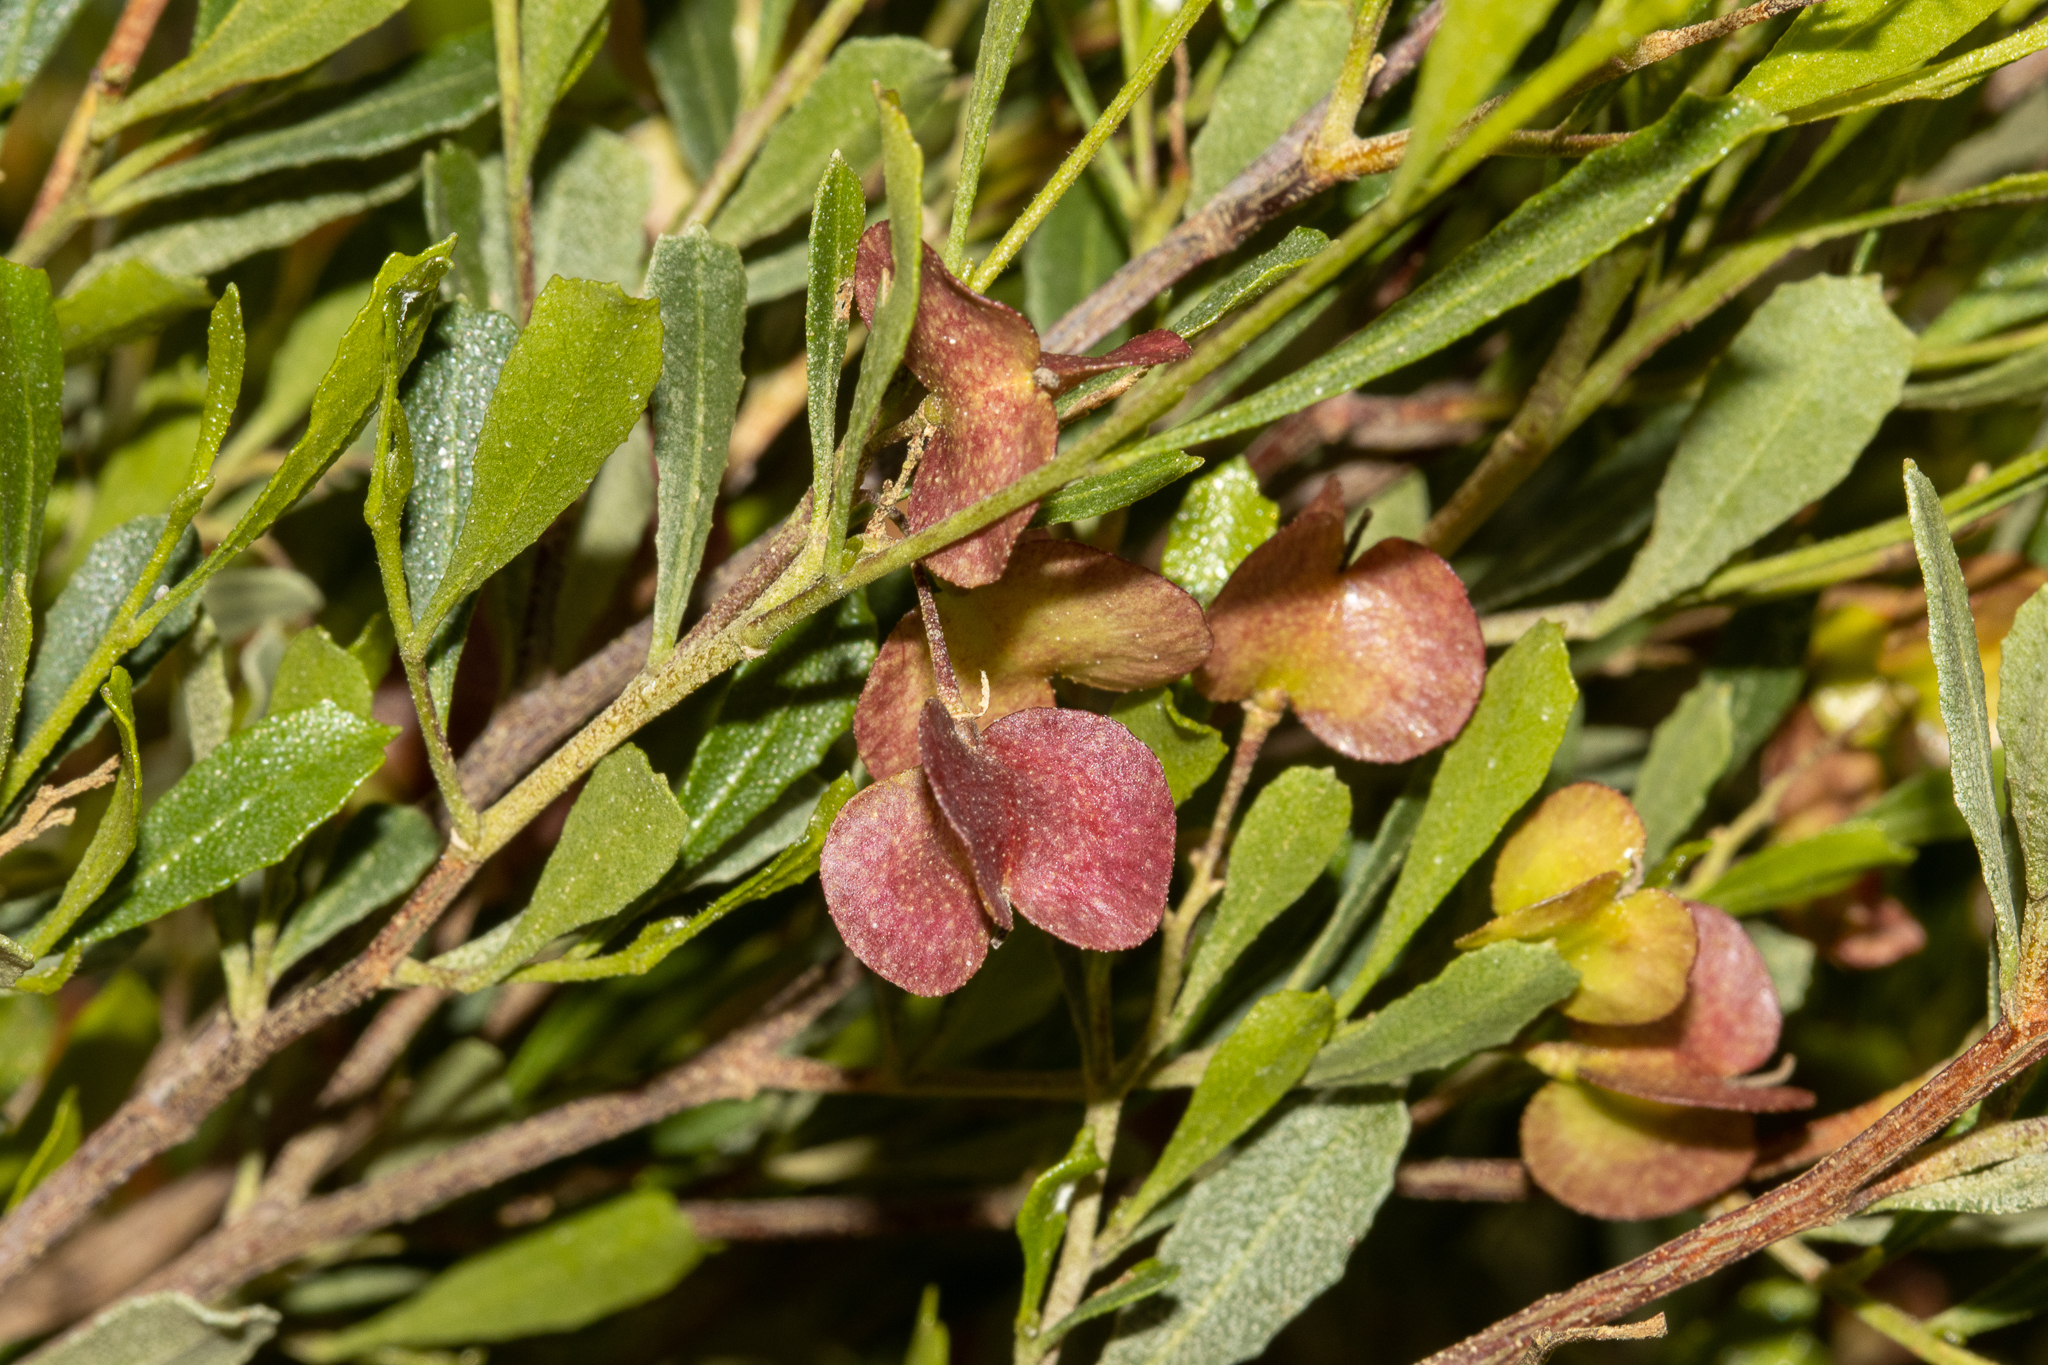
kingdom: Plantae
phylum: Tracheophyta
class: Magnoliopsida
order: Sapindales
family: Sapindaceae
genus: Dodonaea
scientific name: Dodonaea viscosa
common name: Hopbush
